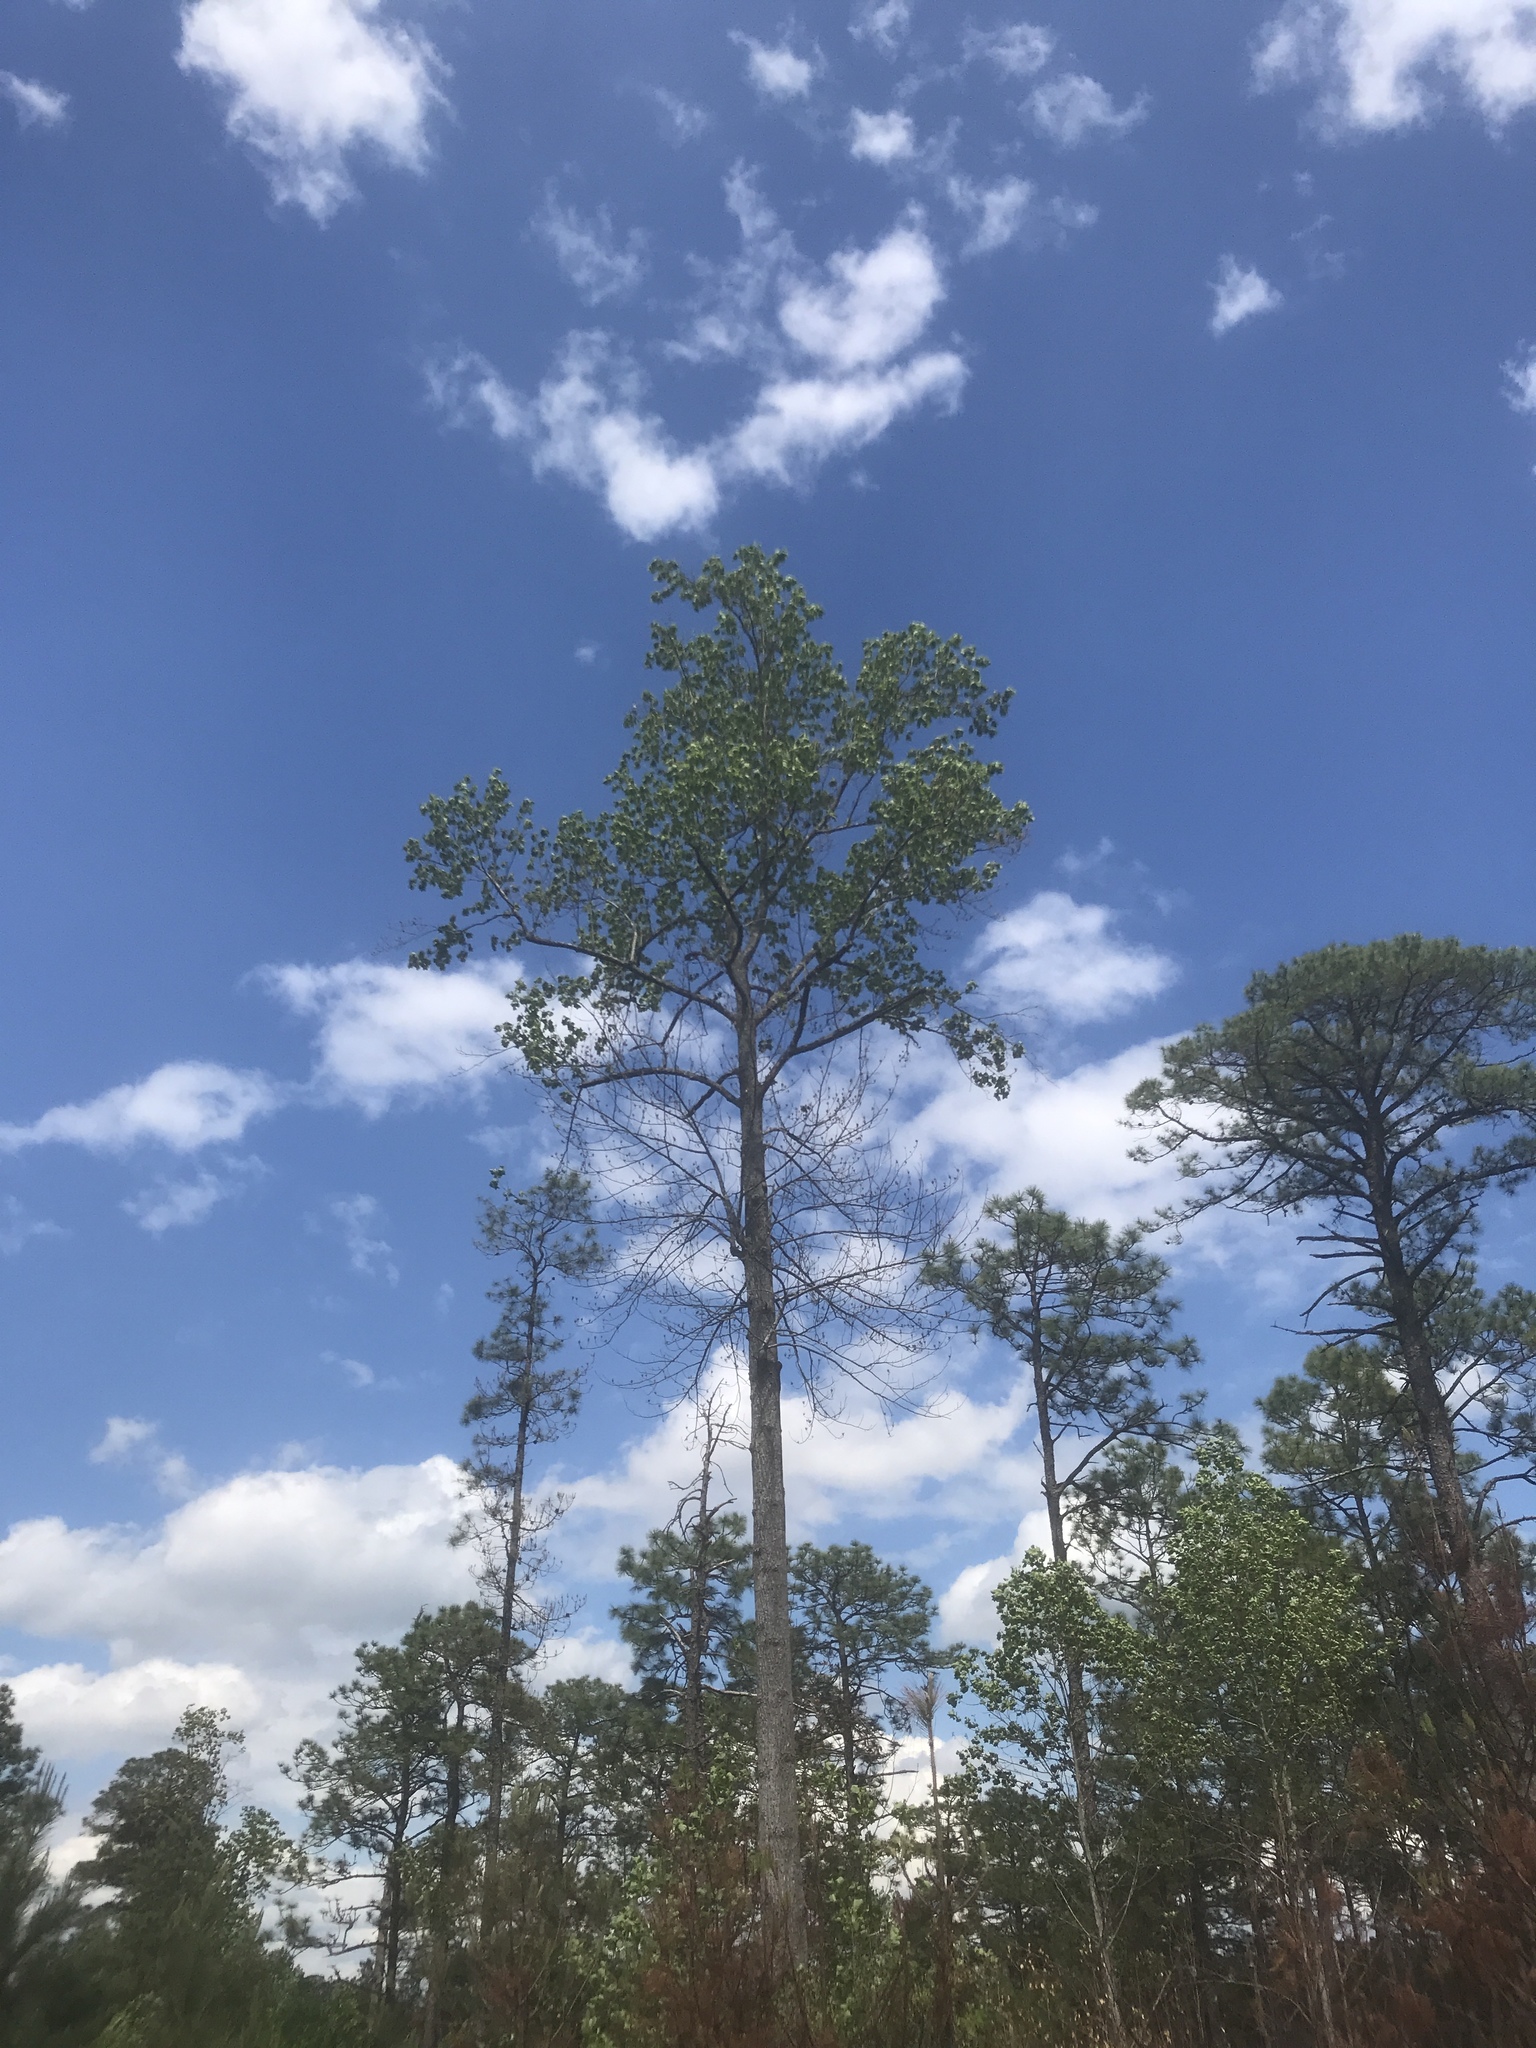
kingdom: Plantae
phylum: Tracheophyta
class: Magnoliopsida
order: Magnoliales
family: Magnoliaceae
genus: Liriodendron
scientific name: Liriodendron tulipifera
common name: Tulip tree
